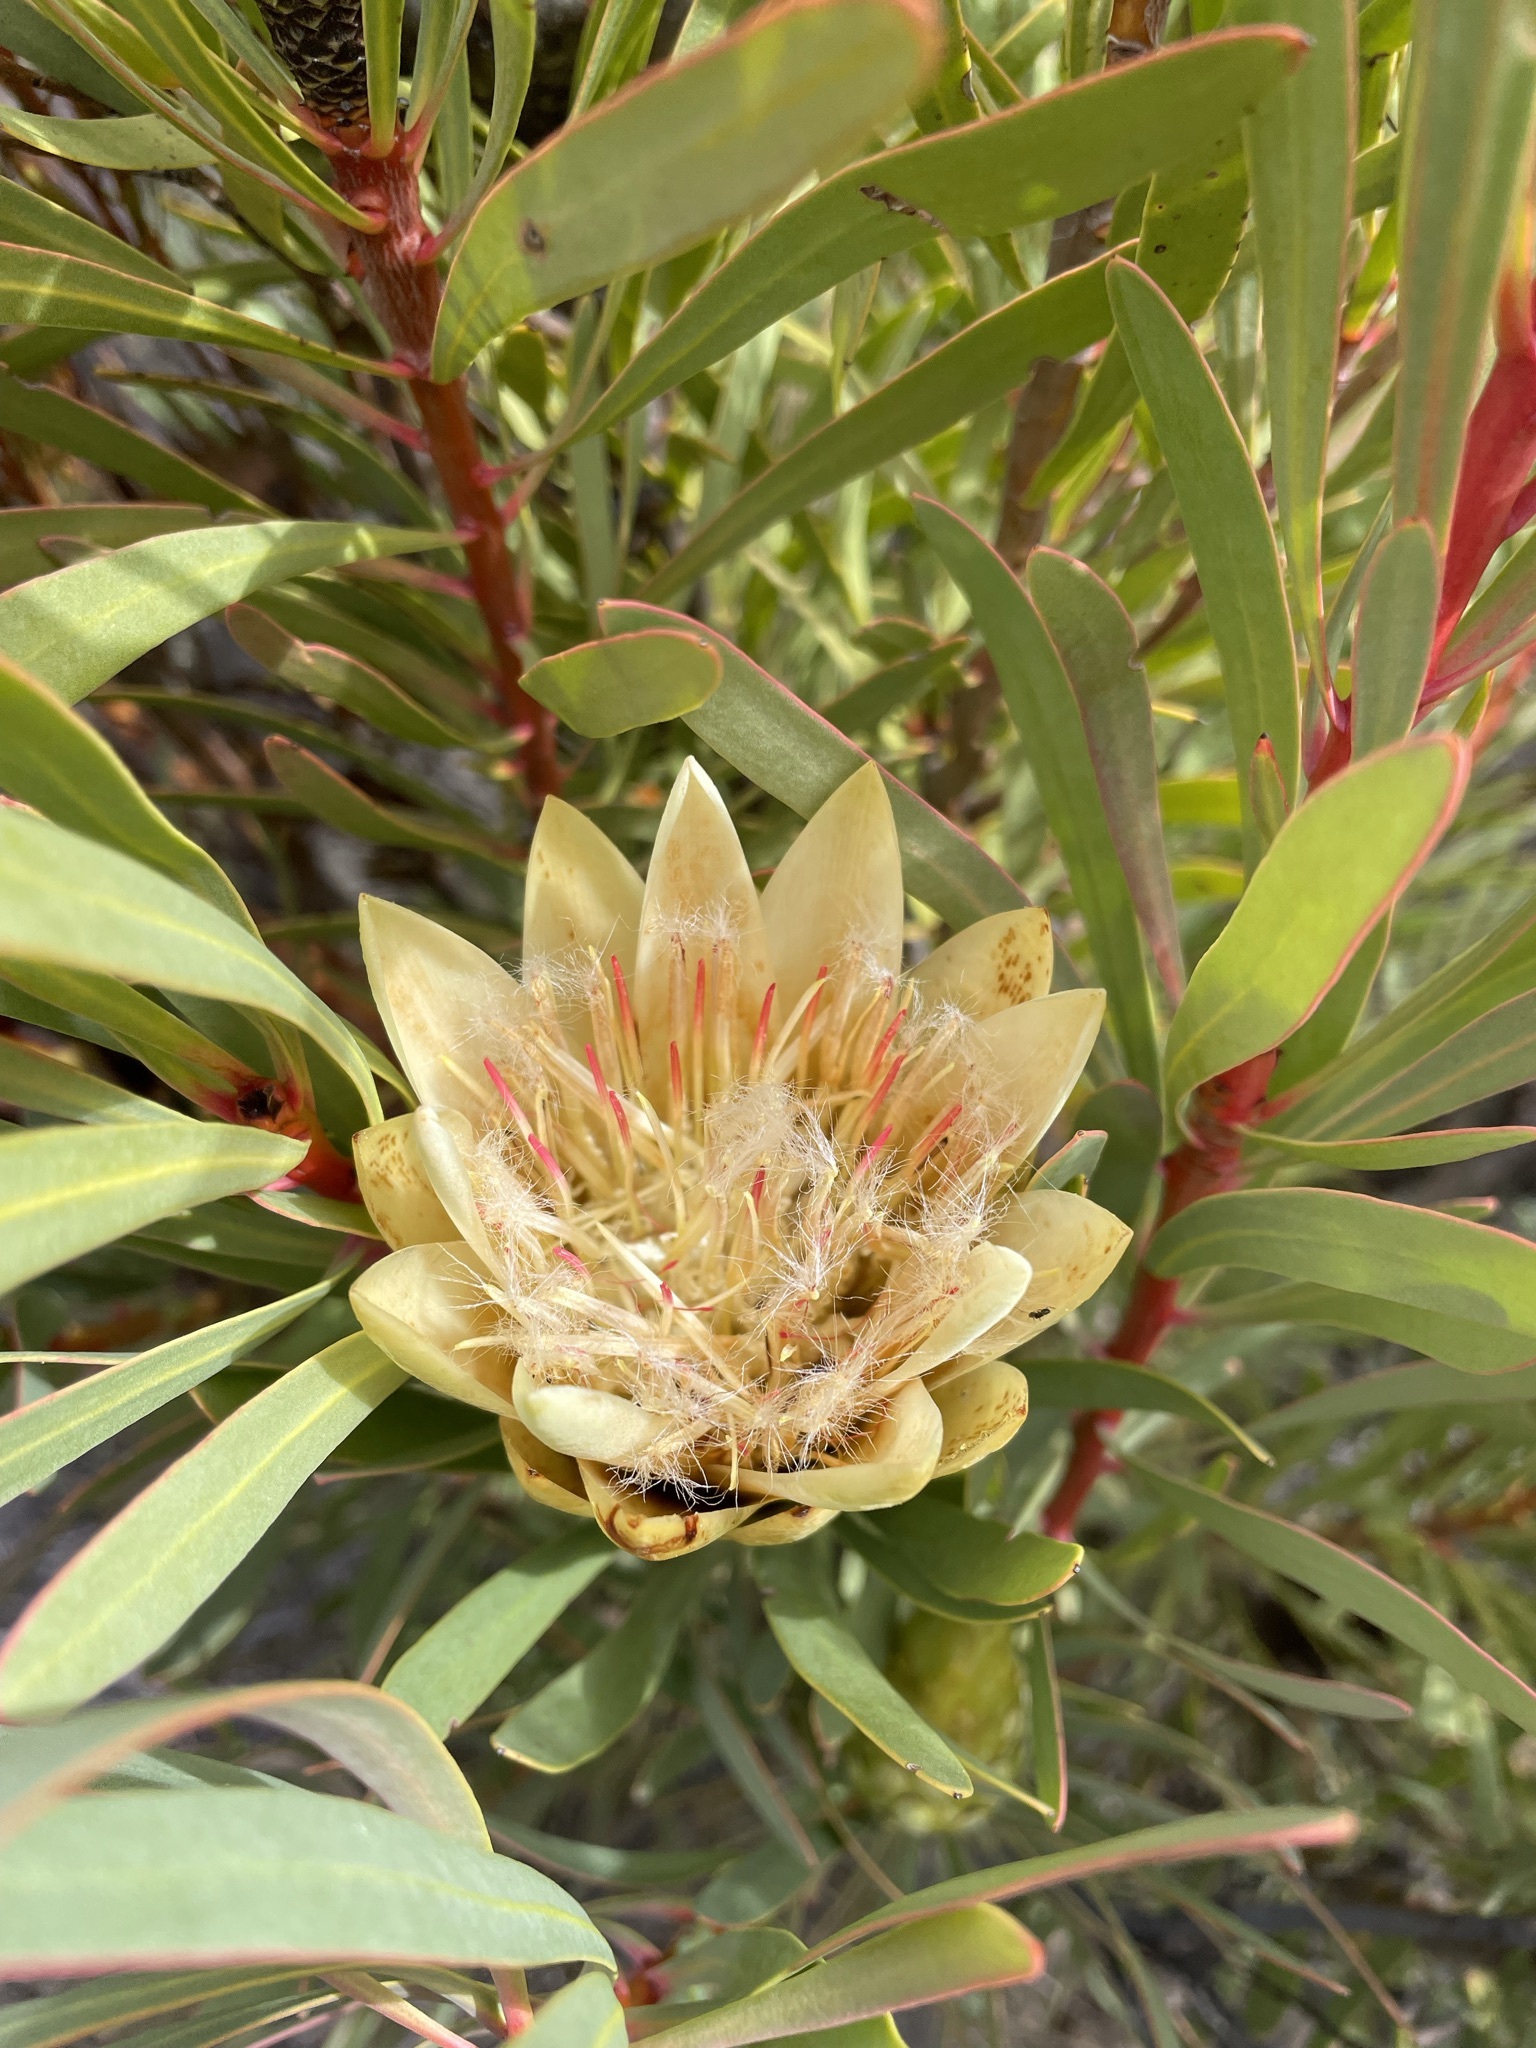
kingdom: Plantae
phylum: Tracheophyta
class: Magnoliopsida
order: Proteales
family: Proteaceae
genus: Protea
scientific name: Protea repens
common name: Sugarbush
